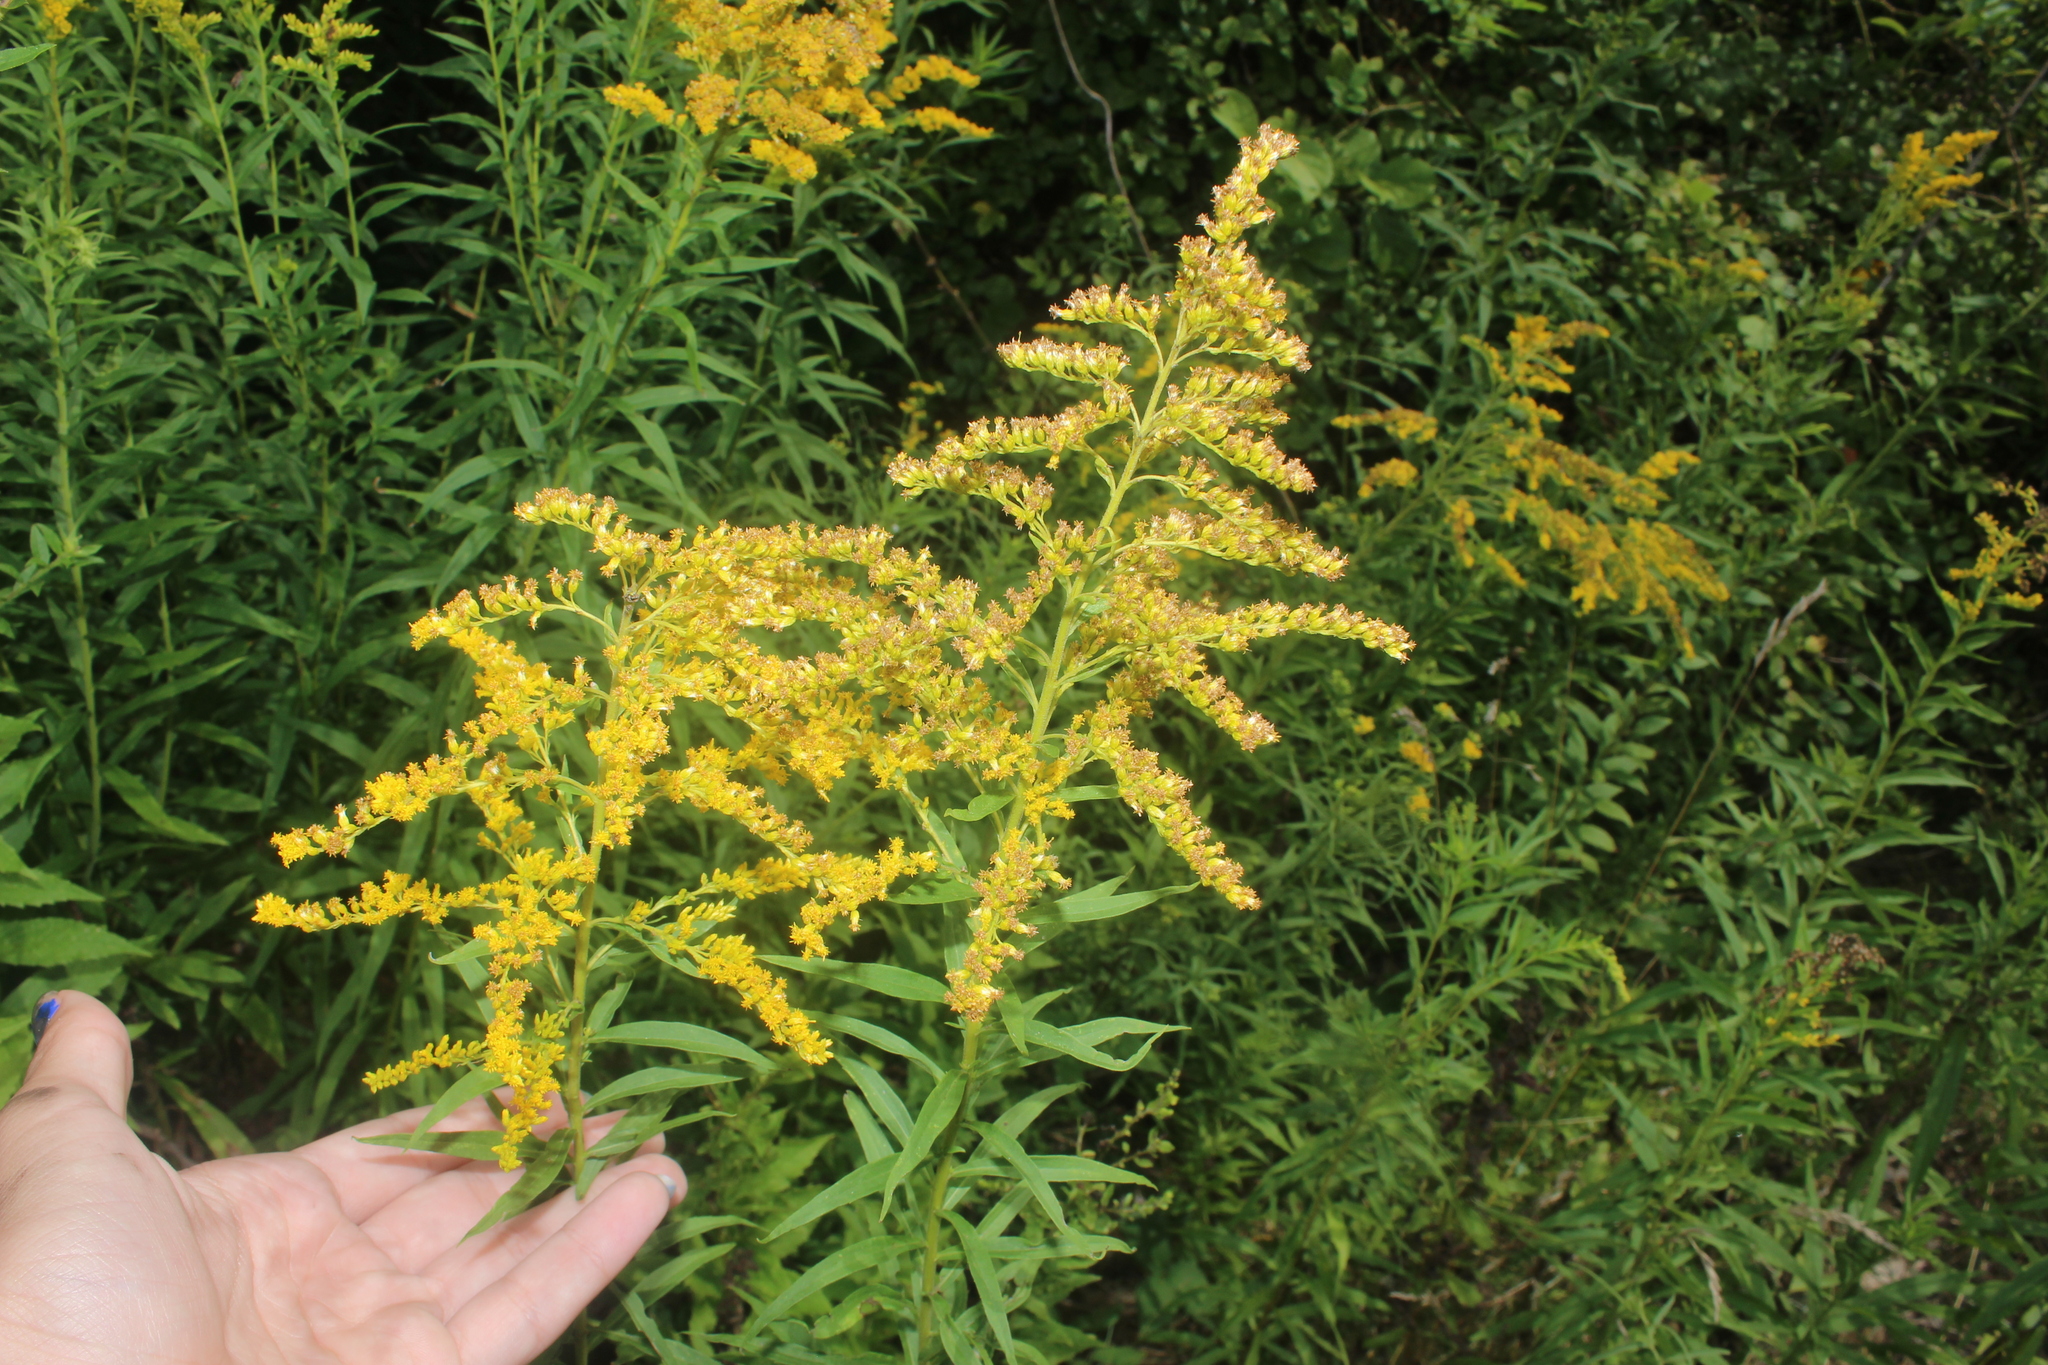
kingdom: Plantae
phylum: Tracheophyta
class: Magnoliopsida
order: Asterales
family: Asteraceae
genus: Solidago
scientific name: Solidago canadensis
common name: Canada goldenrod
